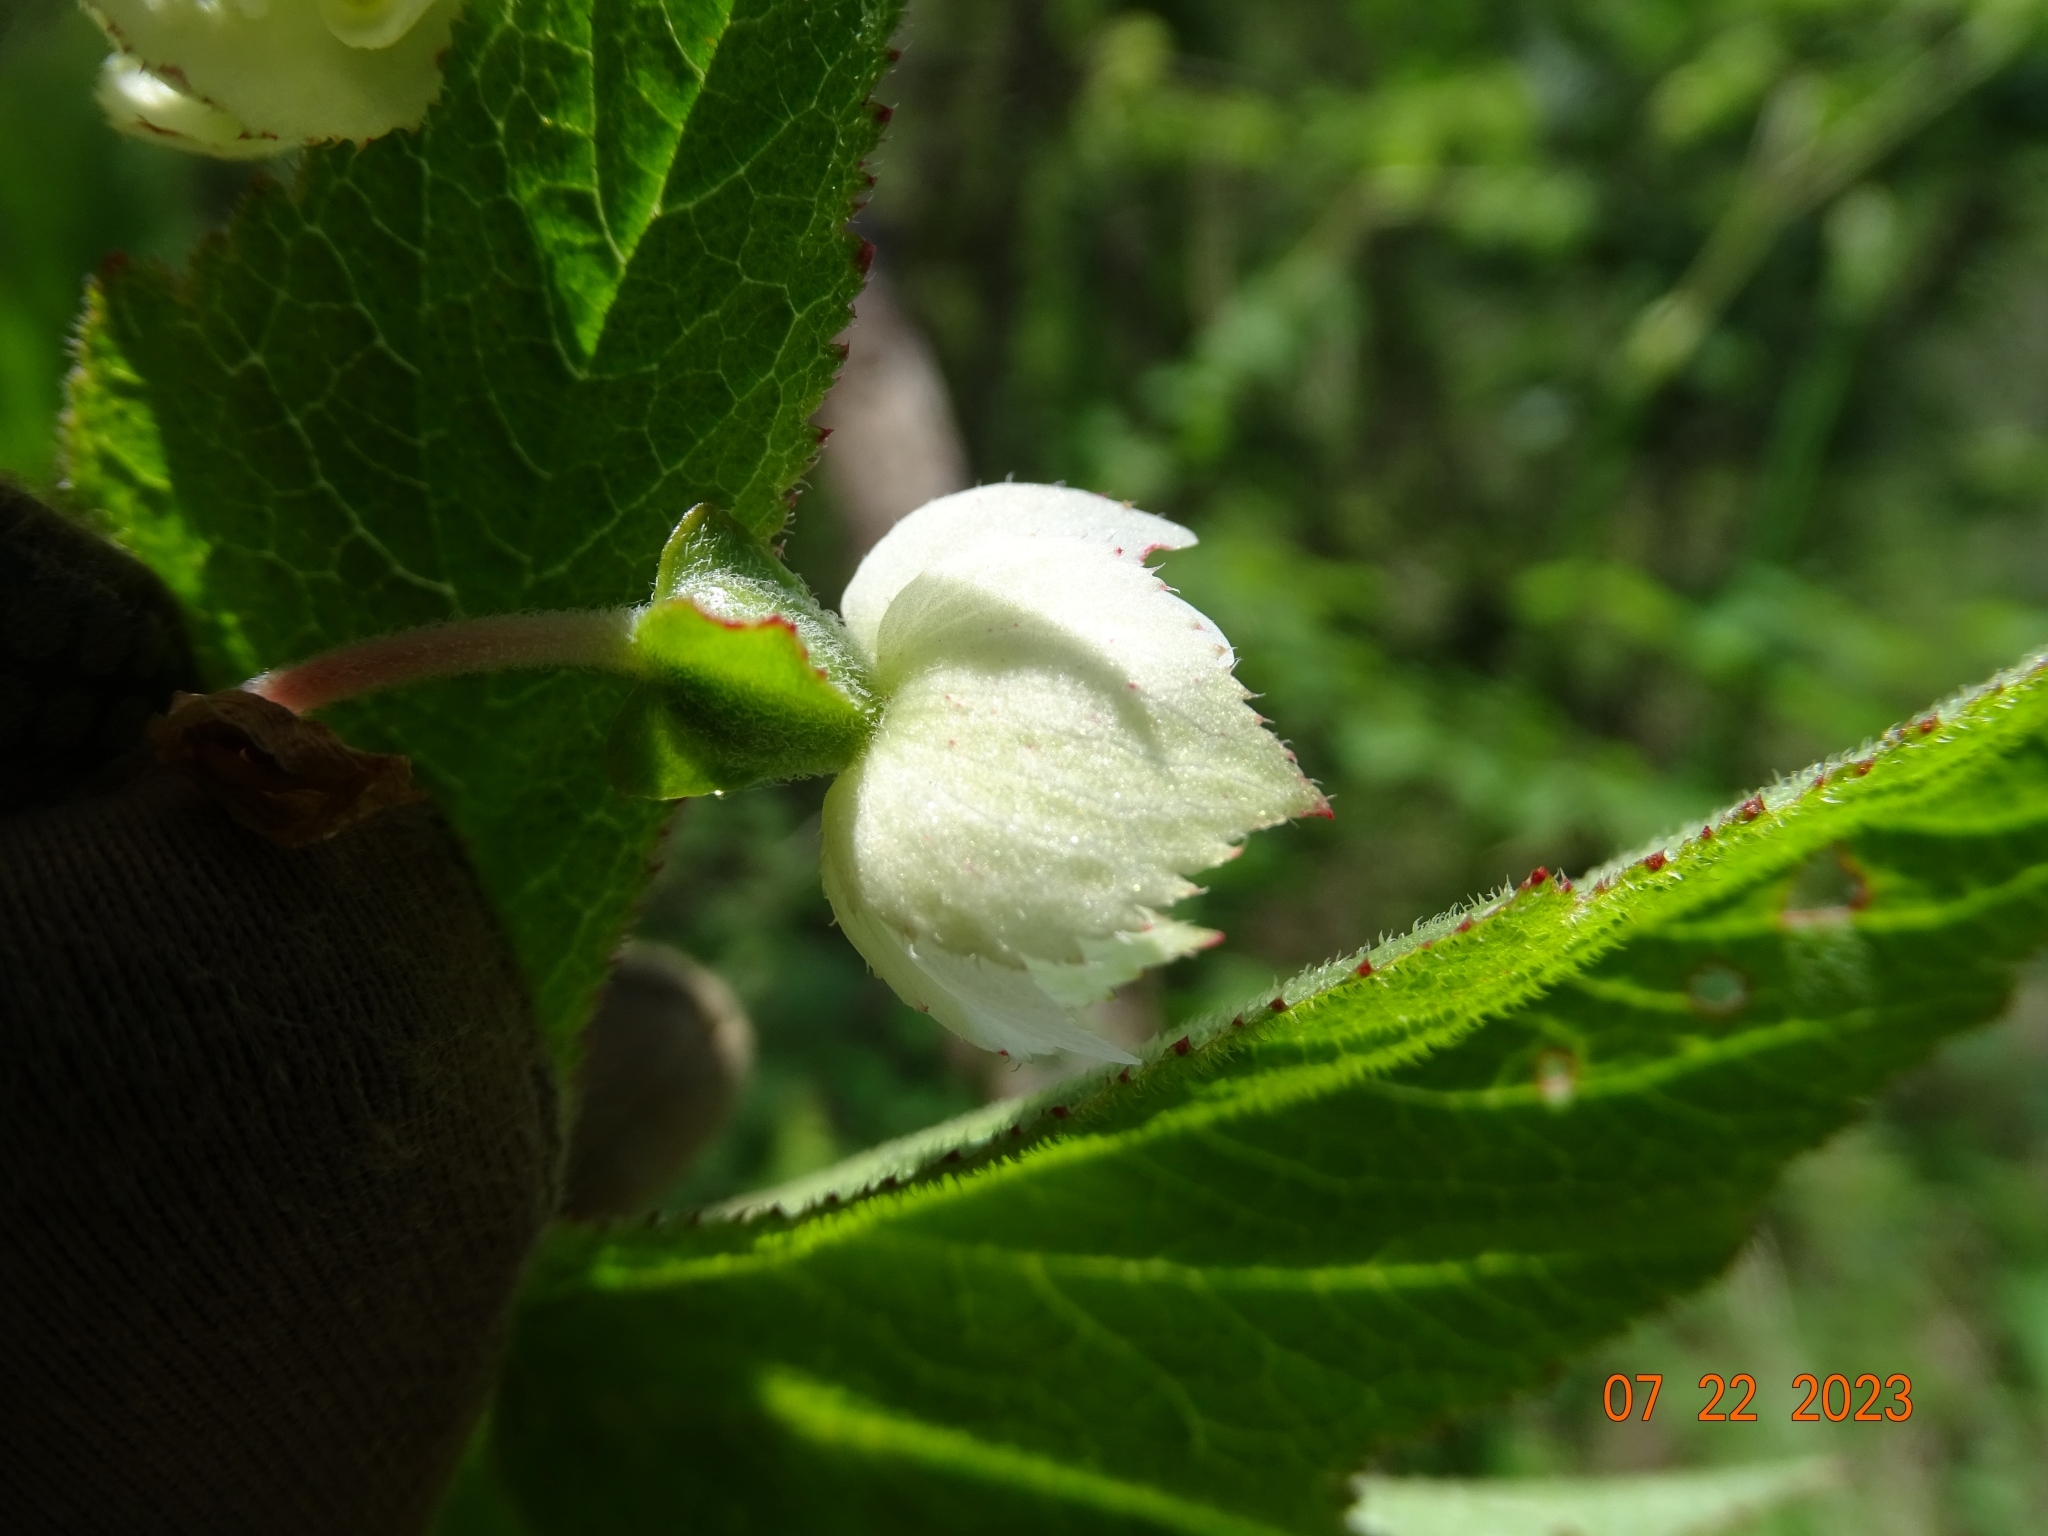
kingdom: Plantae
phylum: Tracheophyta
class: Magnoliopsida
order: Cucurbitales
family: Begoniaceae
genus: Begonia
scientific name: Begonia biserrata
